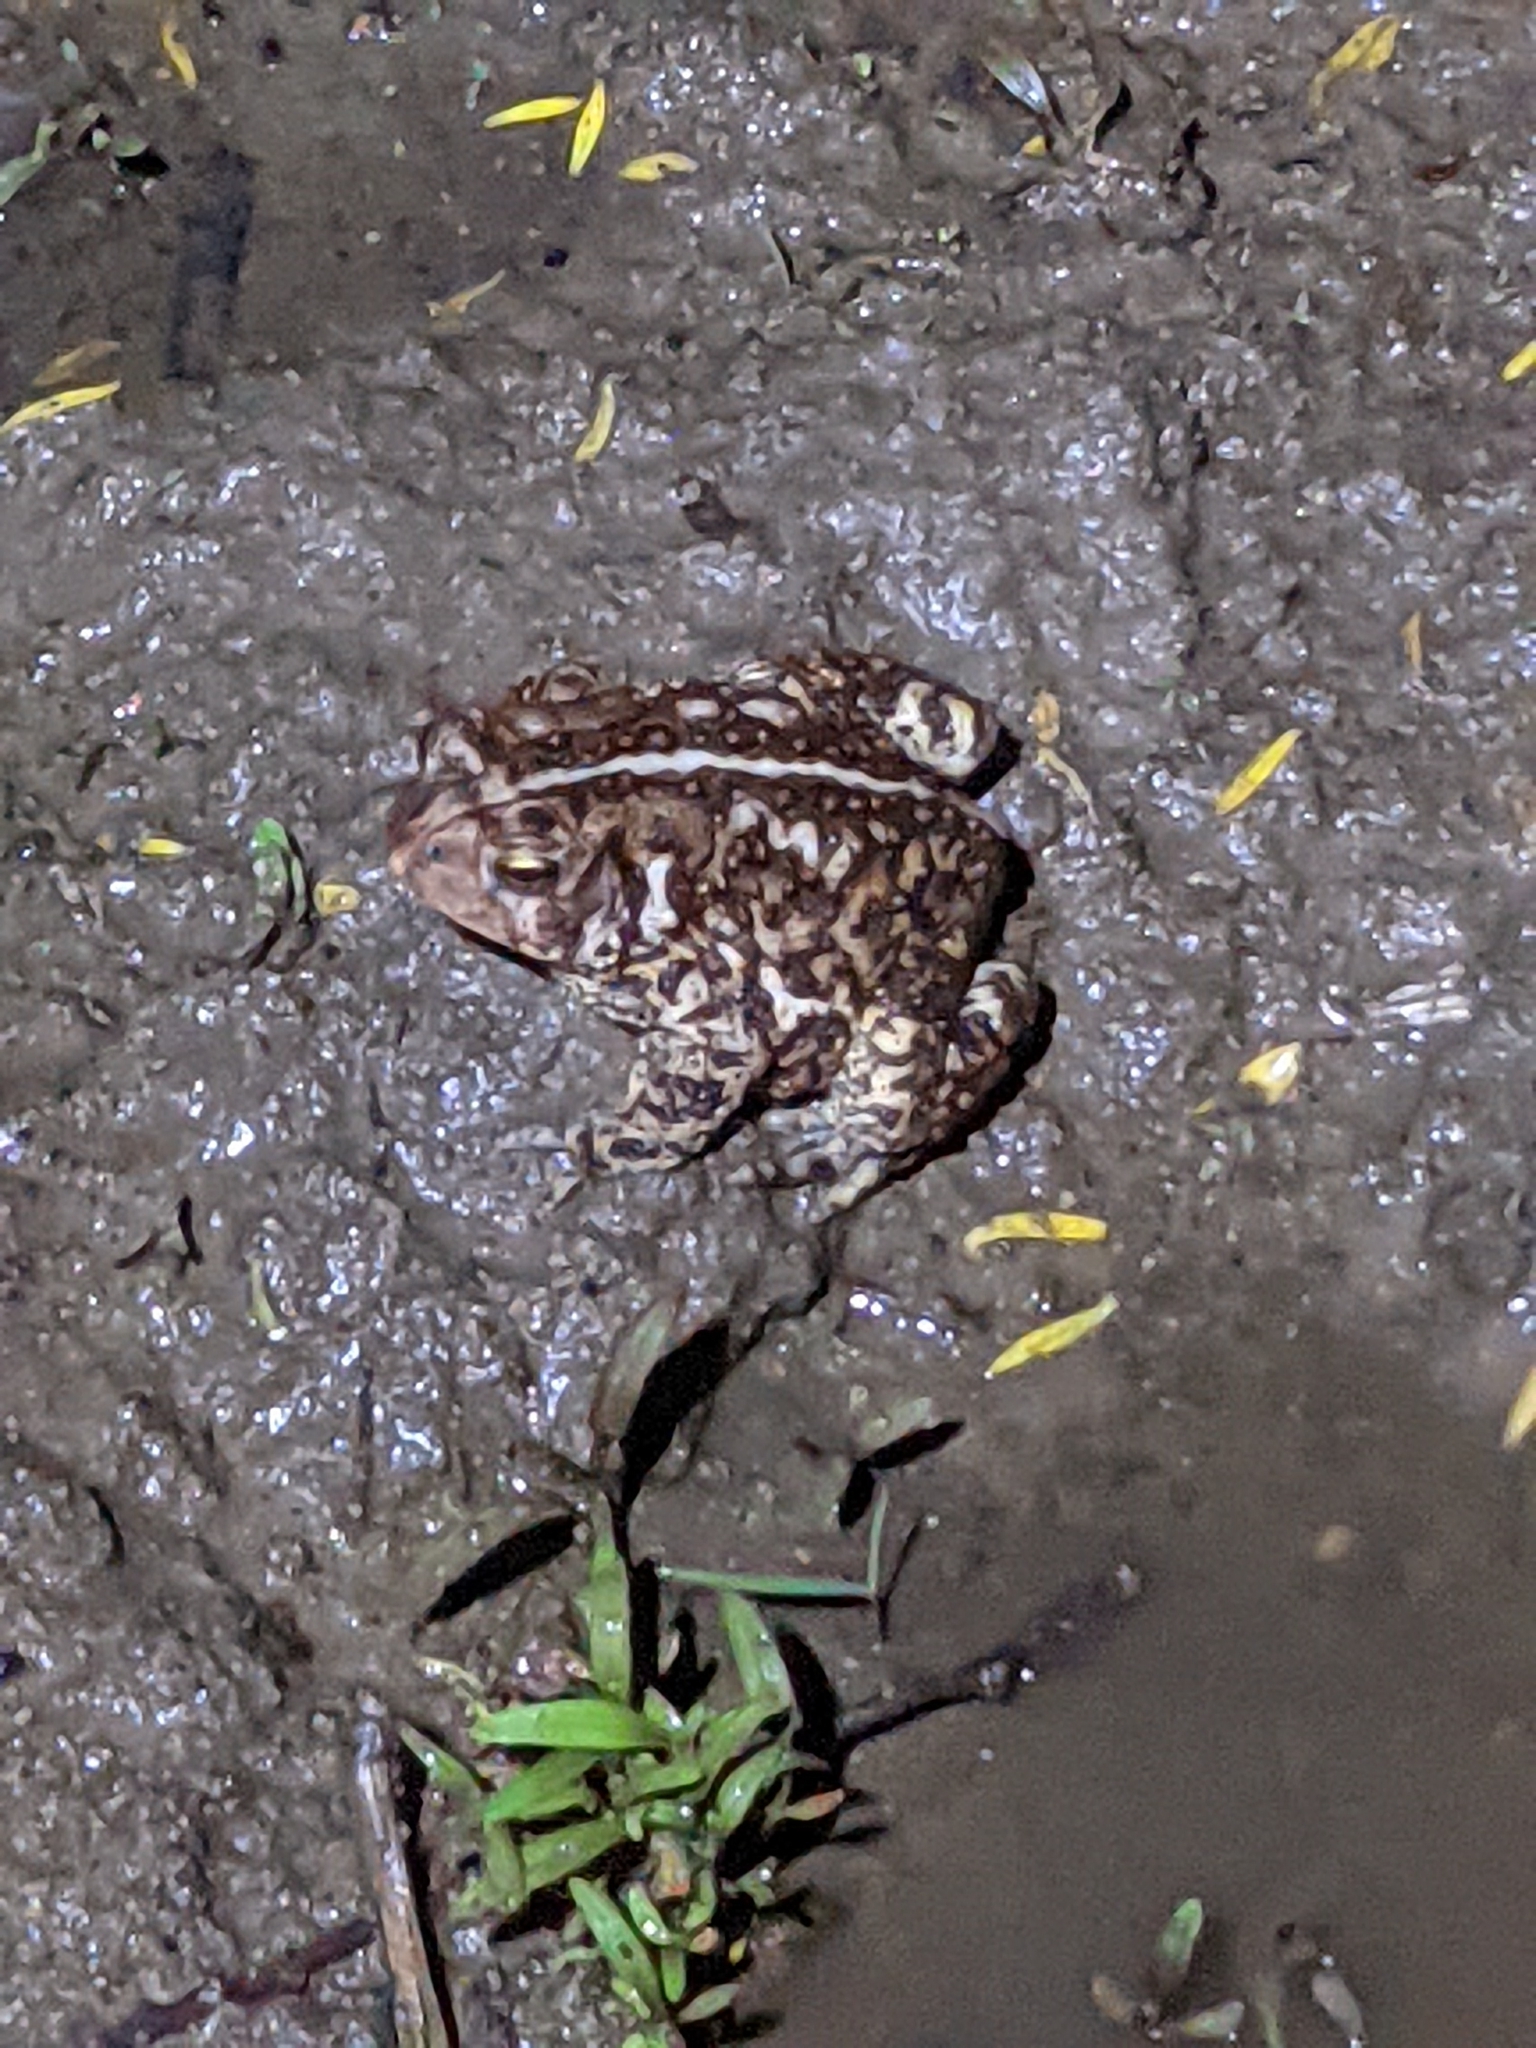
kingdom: Animalia
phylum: Chordata
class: Amphibia
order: Anura
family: Bufonidae
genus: Anaxyrus
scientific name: Anaxyrus americanus
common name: American toad
